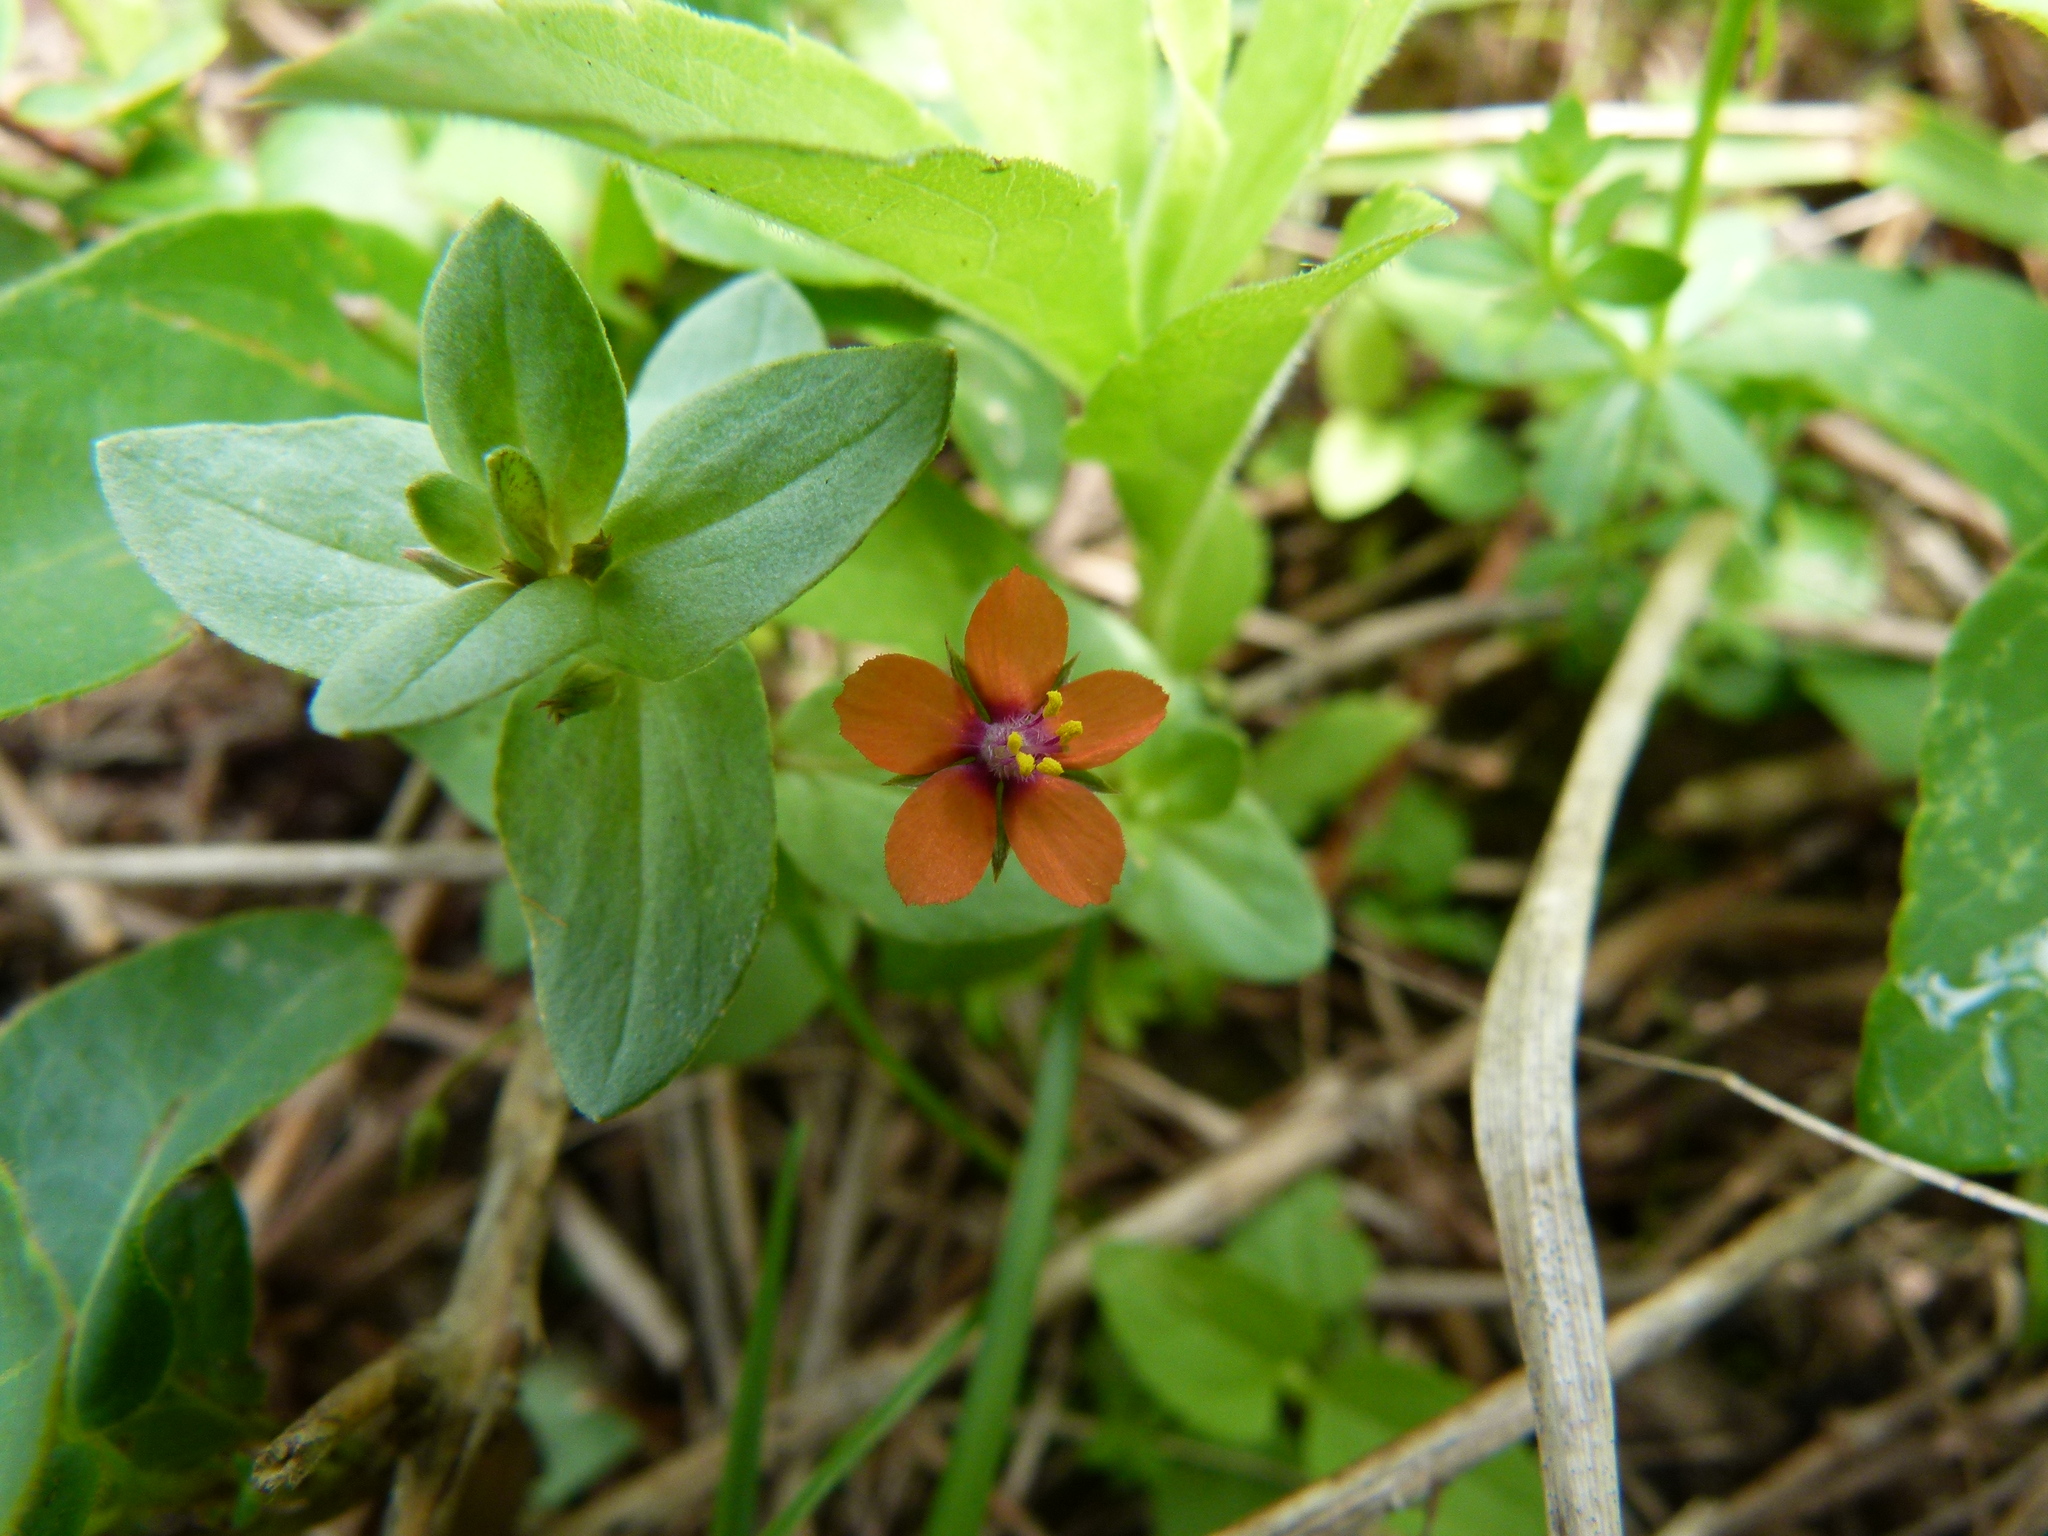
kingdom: Plantae
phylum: Tracheophyta
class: Magnoliopsida
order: Ericales
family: Primulaceae
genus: Lysimachia
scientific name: Lysimachia arvensis
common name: Scarlet pimpernel
